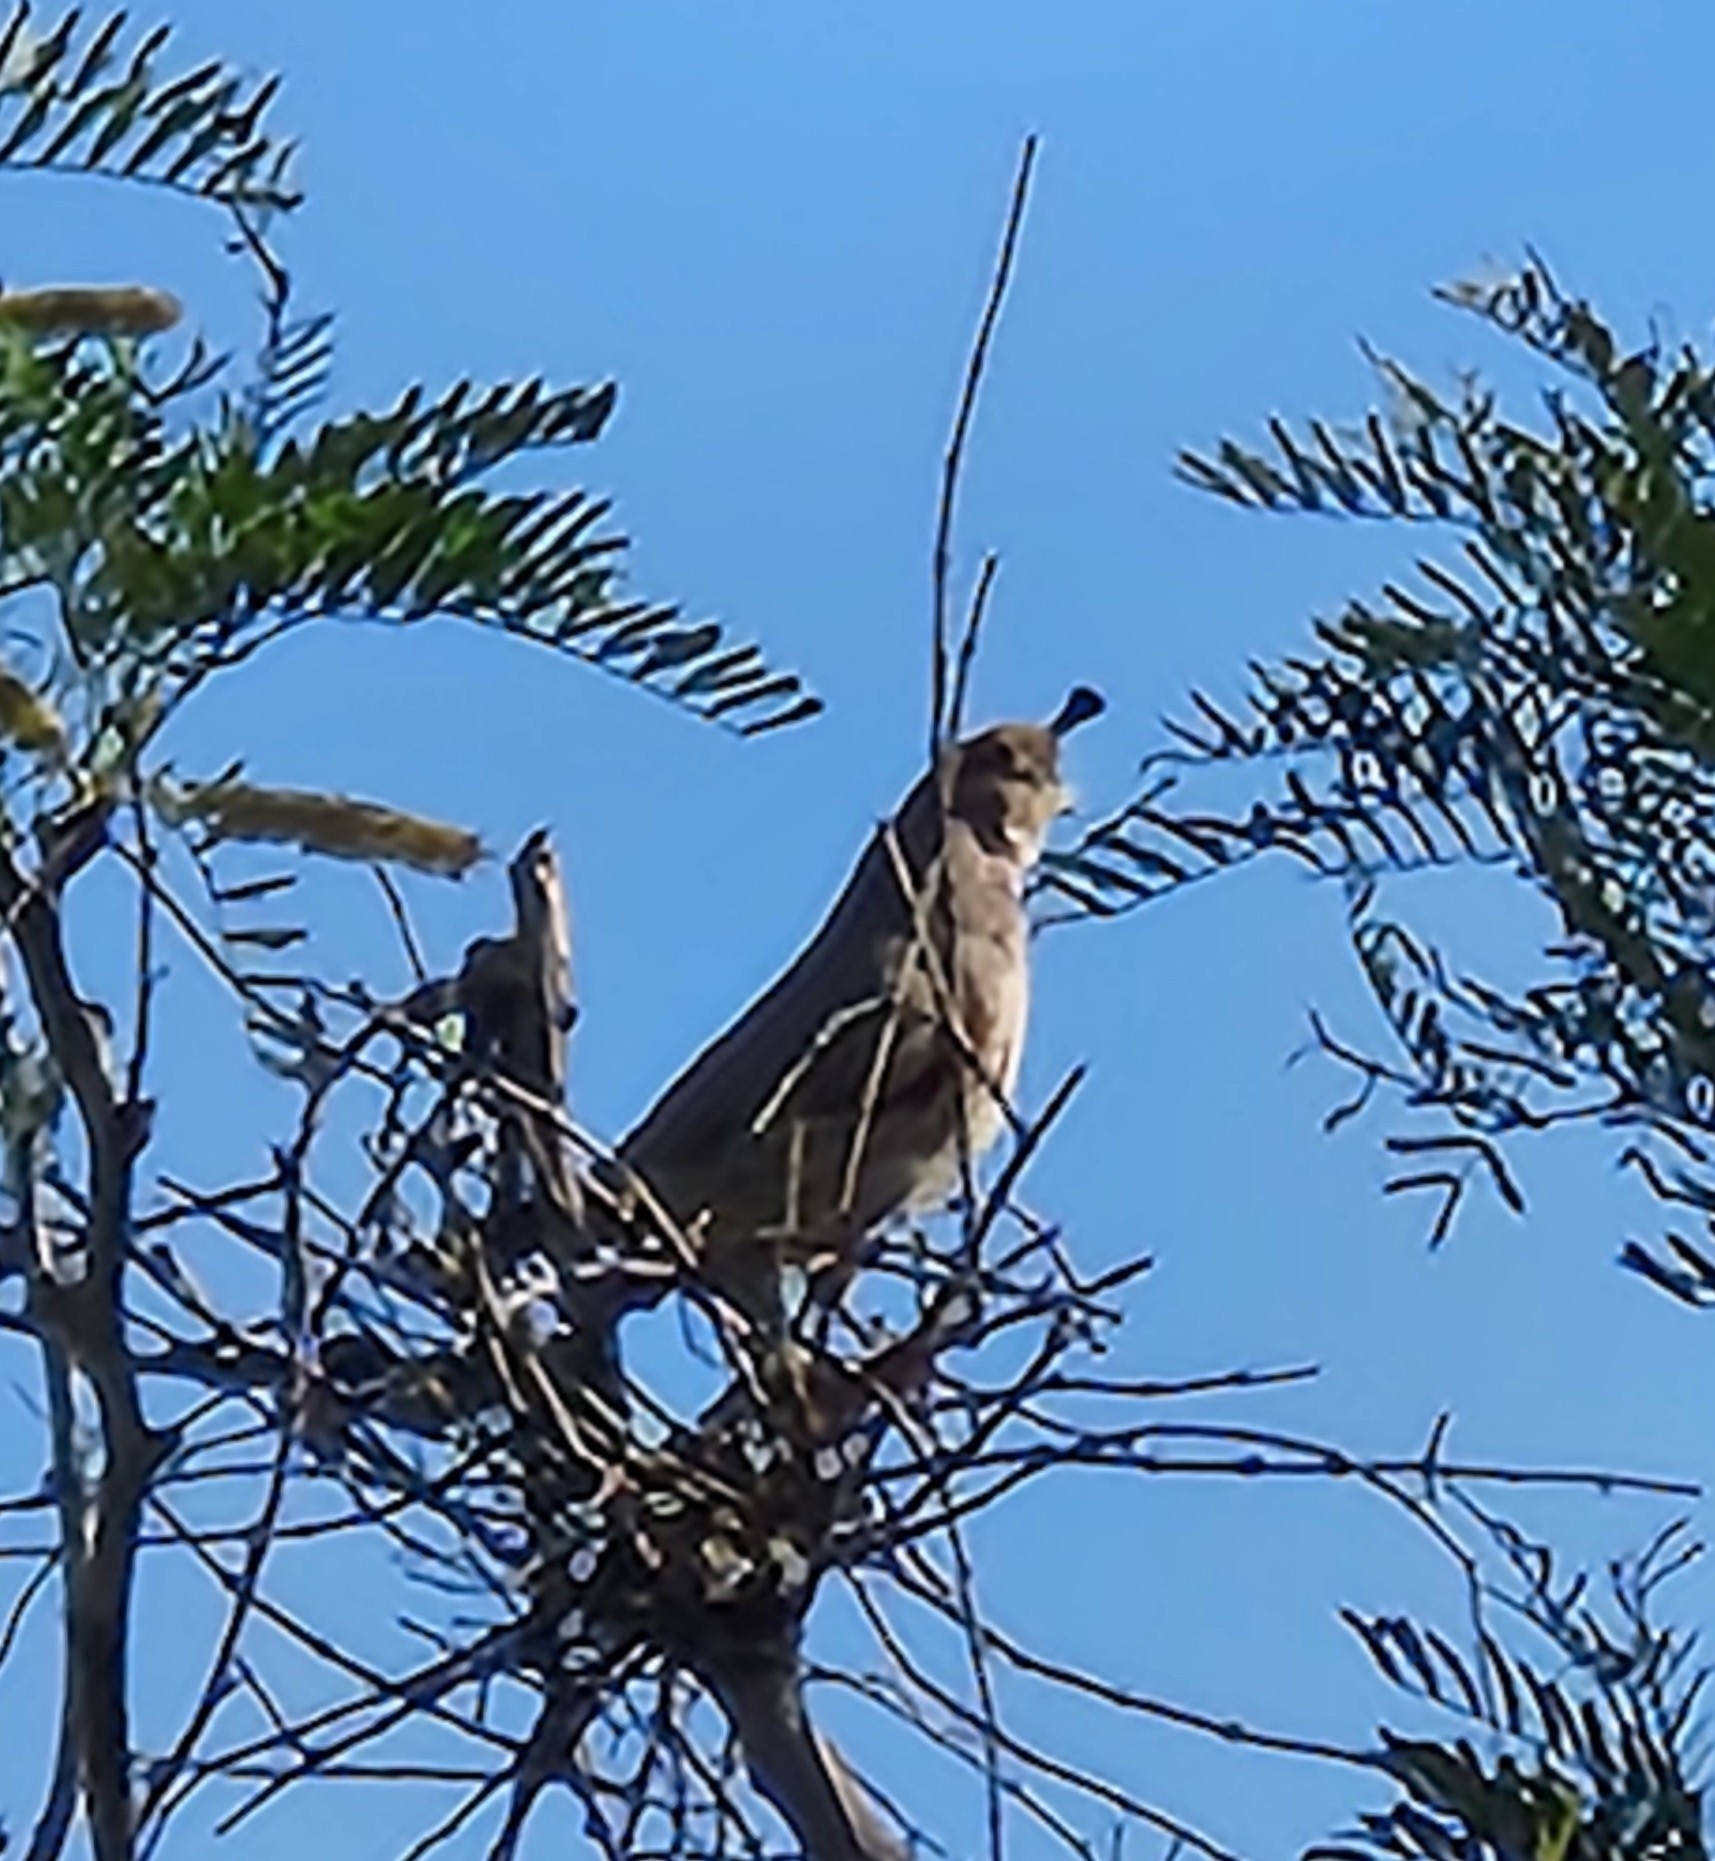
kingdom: Animalia
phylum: Chordata
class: Aves
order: Galliformes
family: Odontophoridae
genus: Callipepla
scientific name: Callipepla gambelii
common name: Gambel's quail
